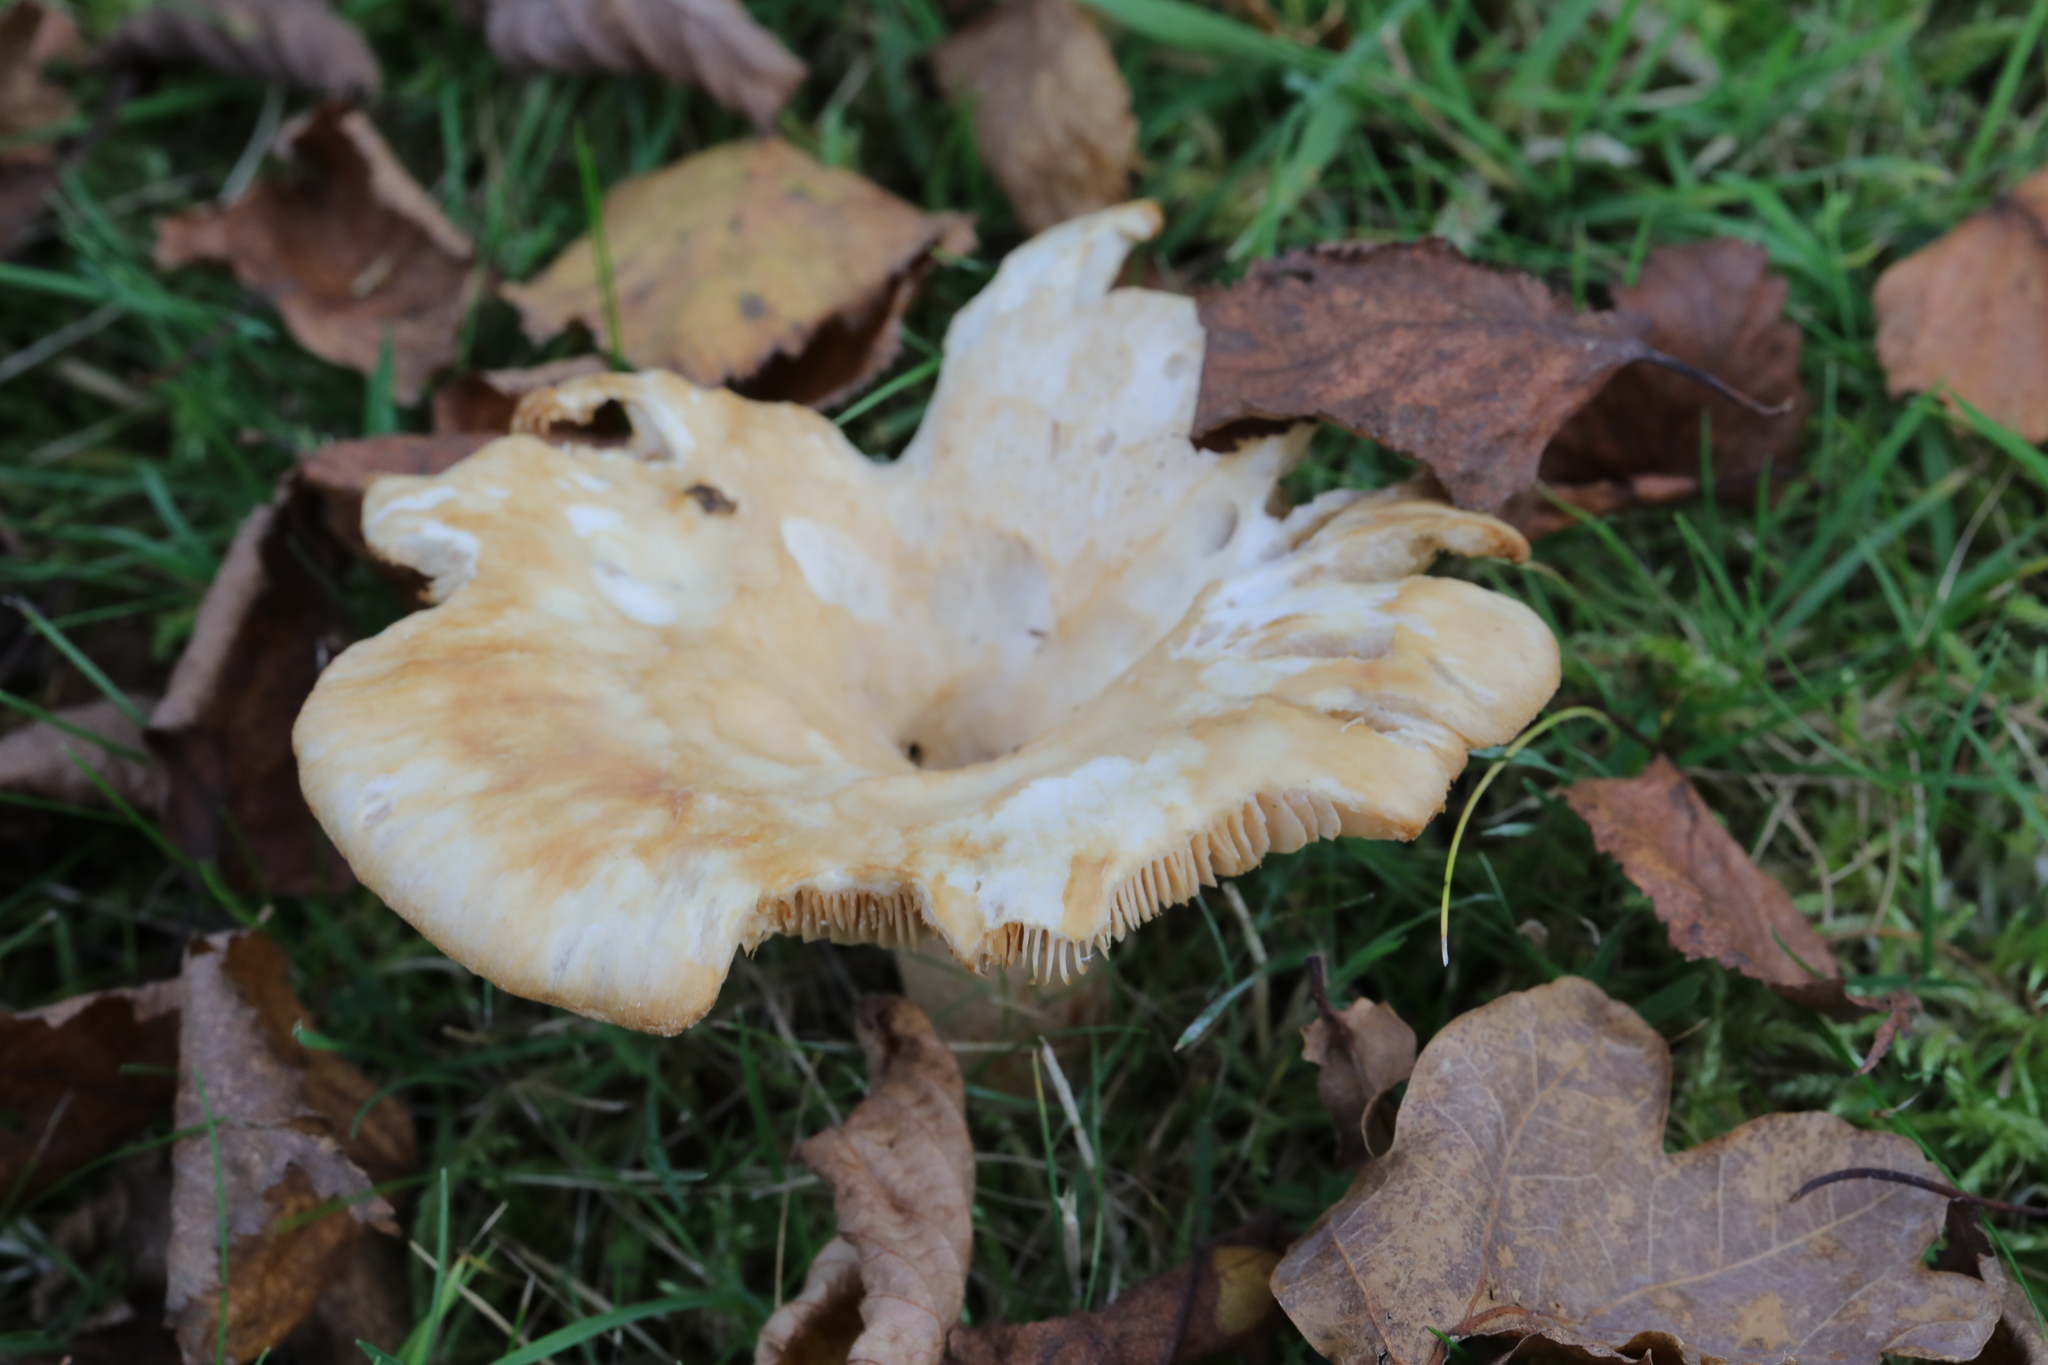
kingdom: Fungi
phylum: Basidiomycota
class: Agaricomycetes
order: Russulales
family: Russulaceae
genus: Lactarius
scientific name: Lactarius
